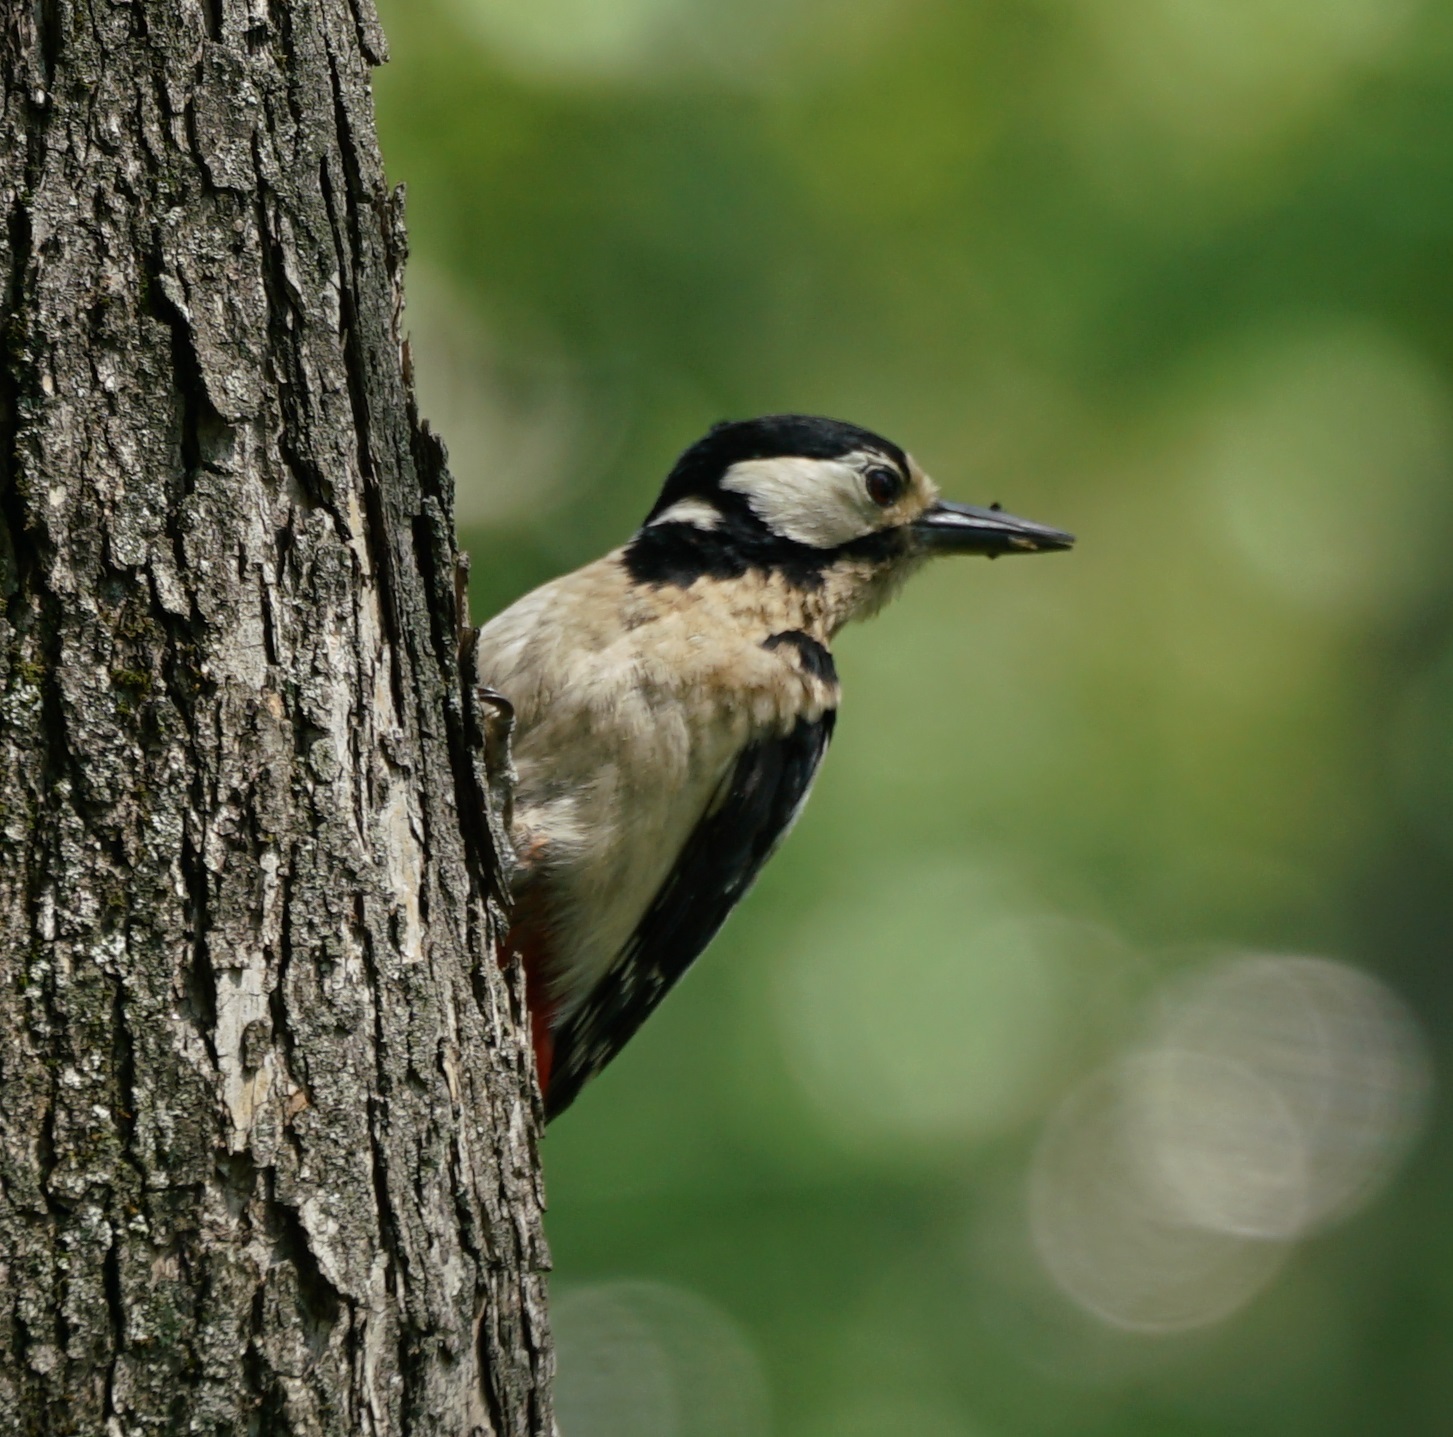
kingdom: Animalia
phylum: Chordata
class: Aves
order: Piciformes
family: Picidae
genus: Dendrocopos
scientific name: Dendrocopos major
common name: Great spotted woodpecker
